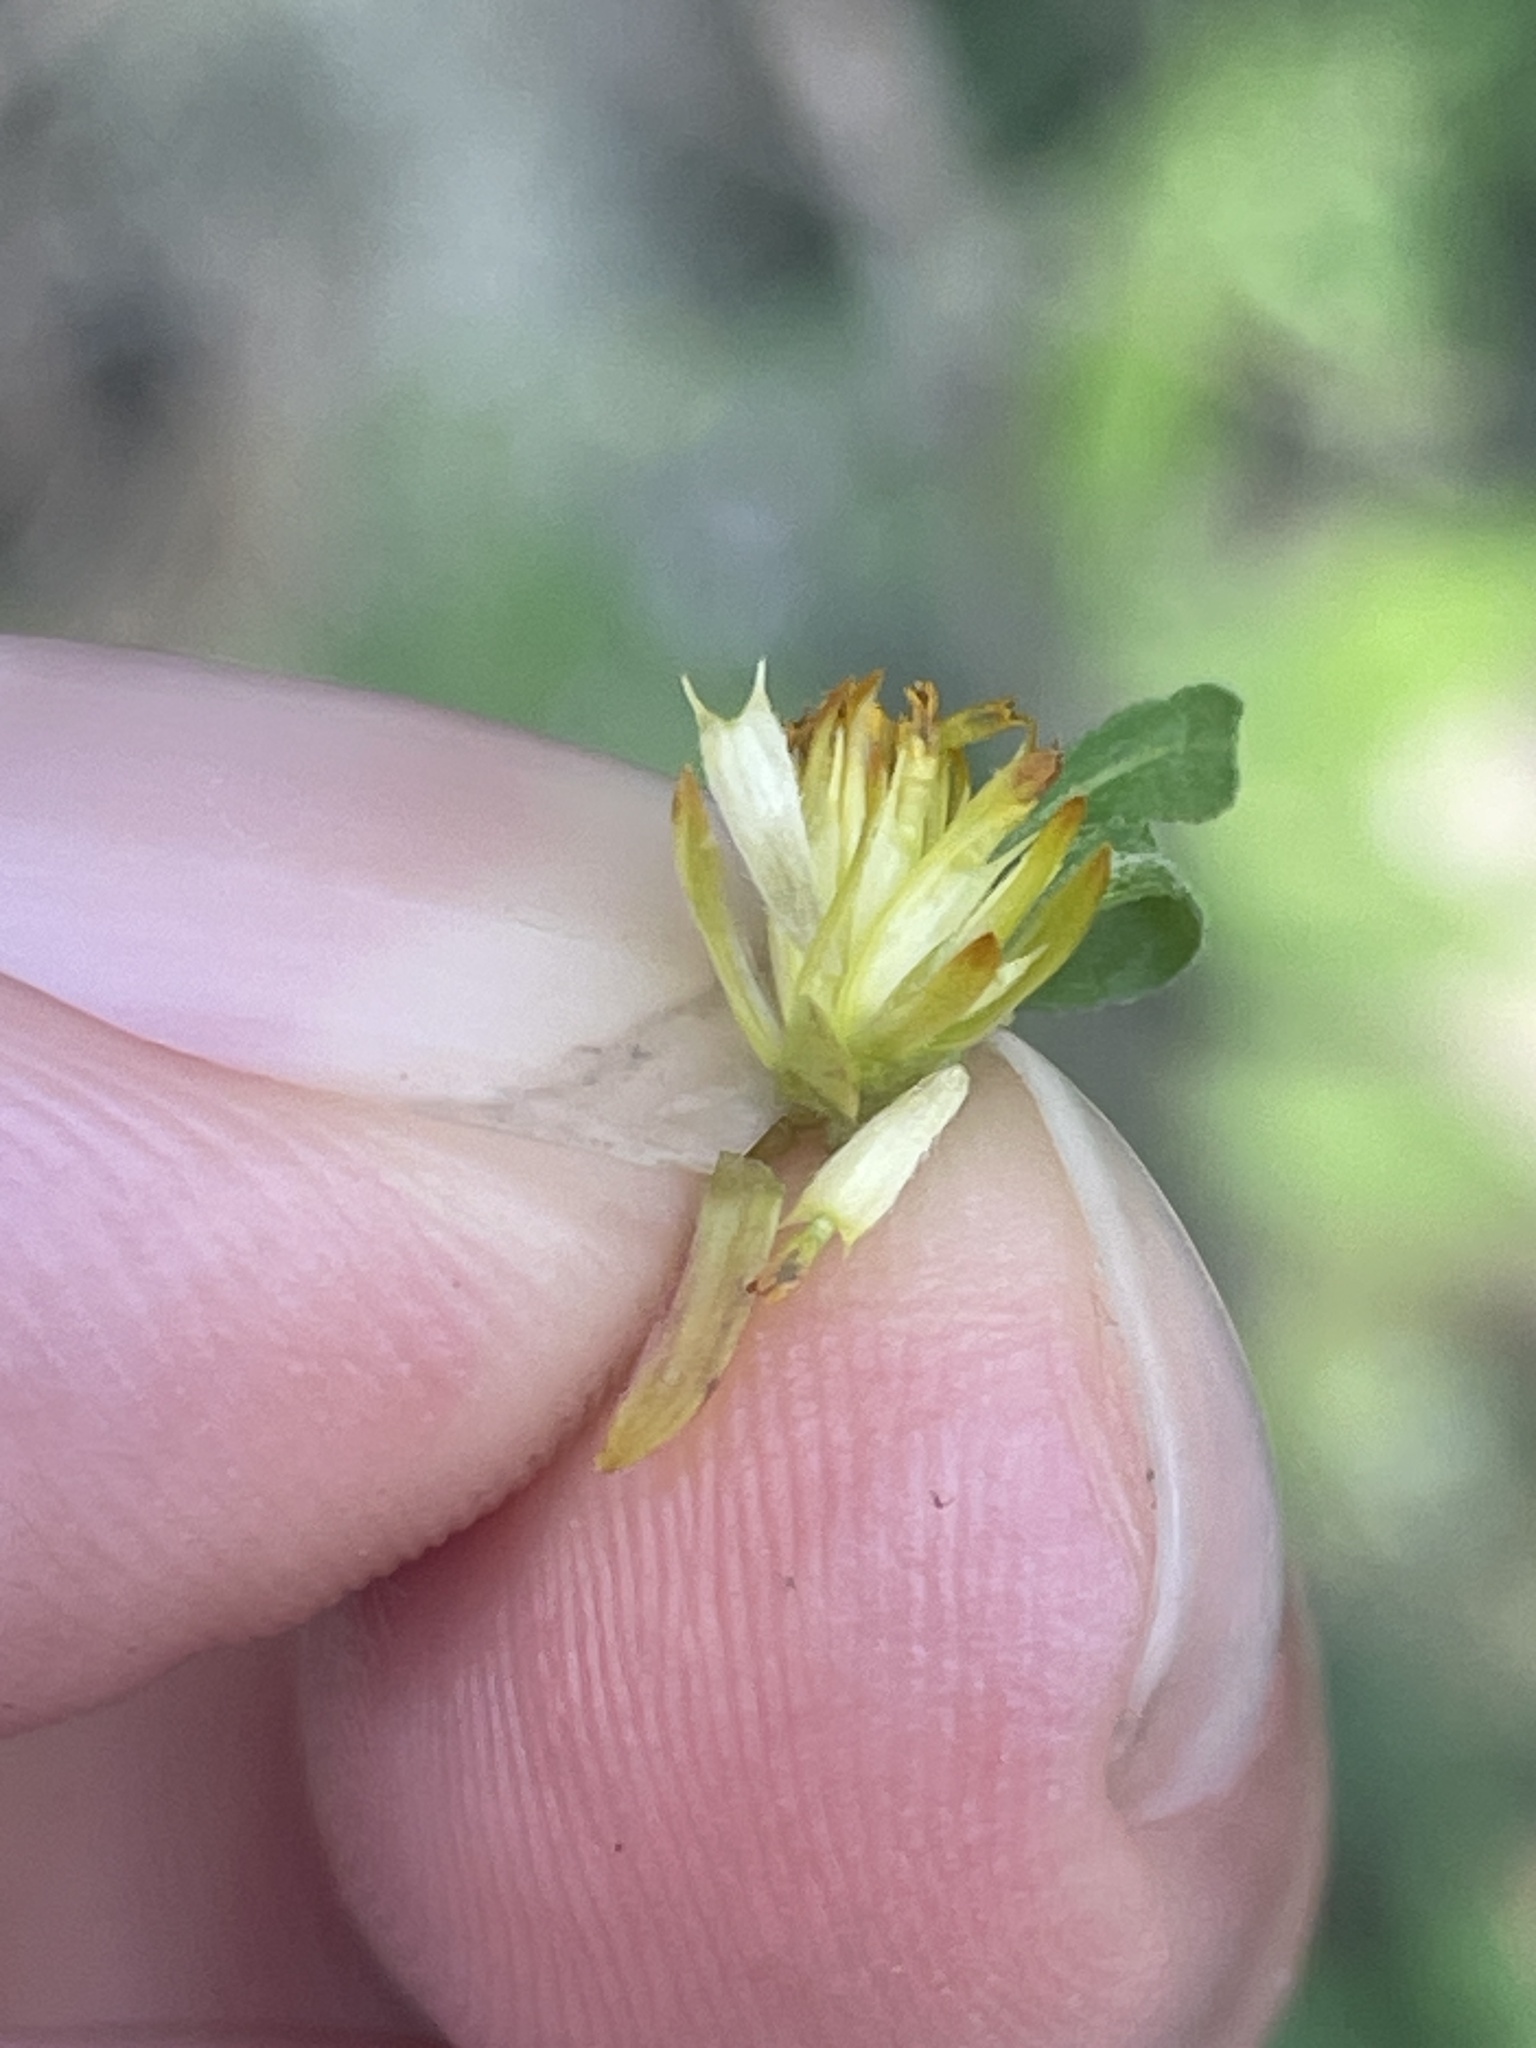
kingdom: Plantae
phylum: Tracheophyta
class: Magnoliopsida
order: Asterales
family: Asteraceae
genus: Bidens
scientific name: Bidens discoidea
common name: Discoide beggarticks
